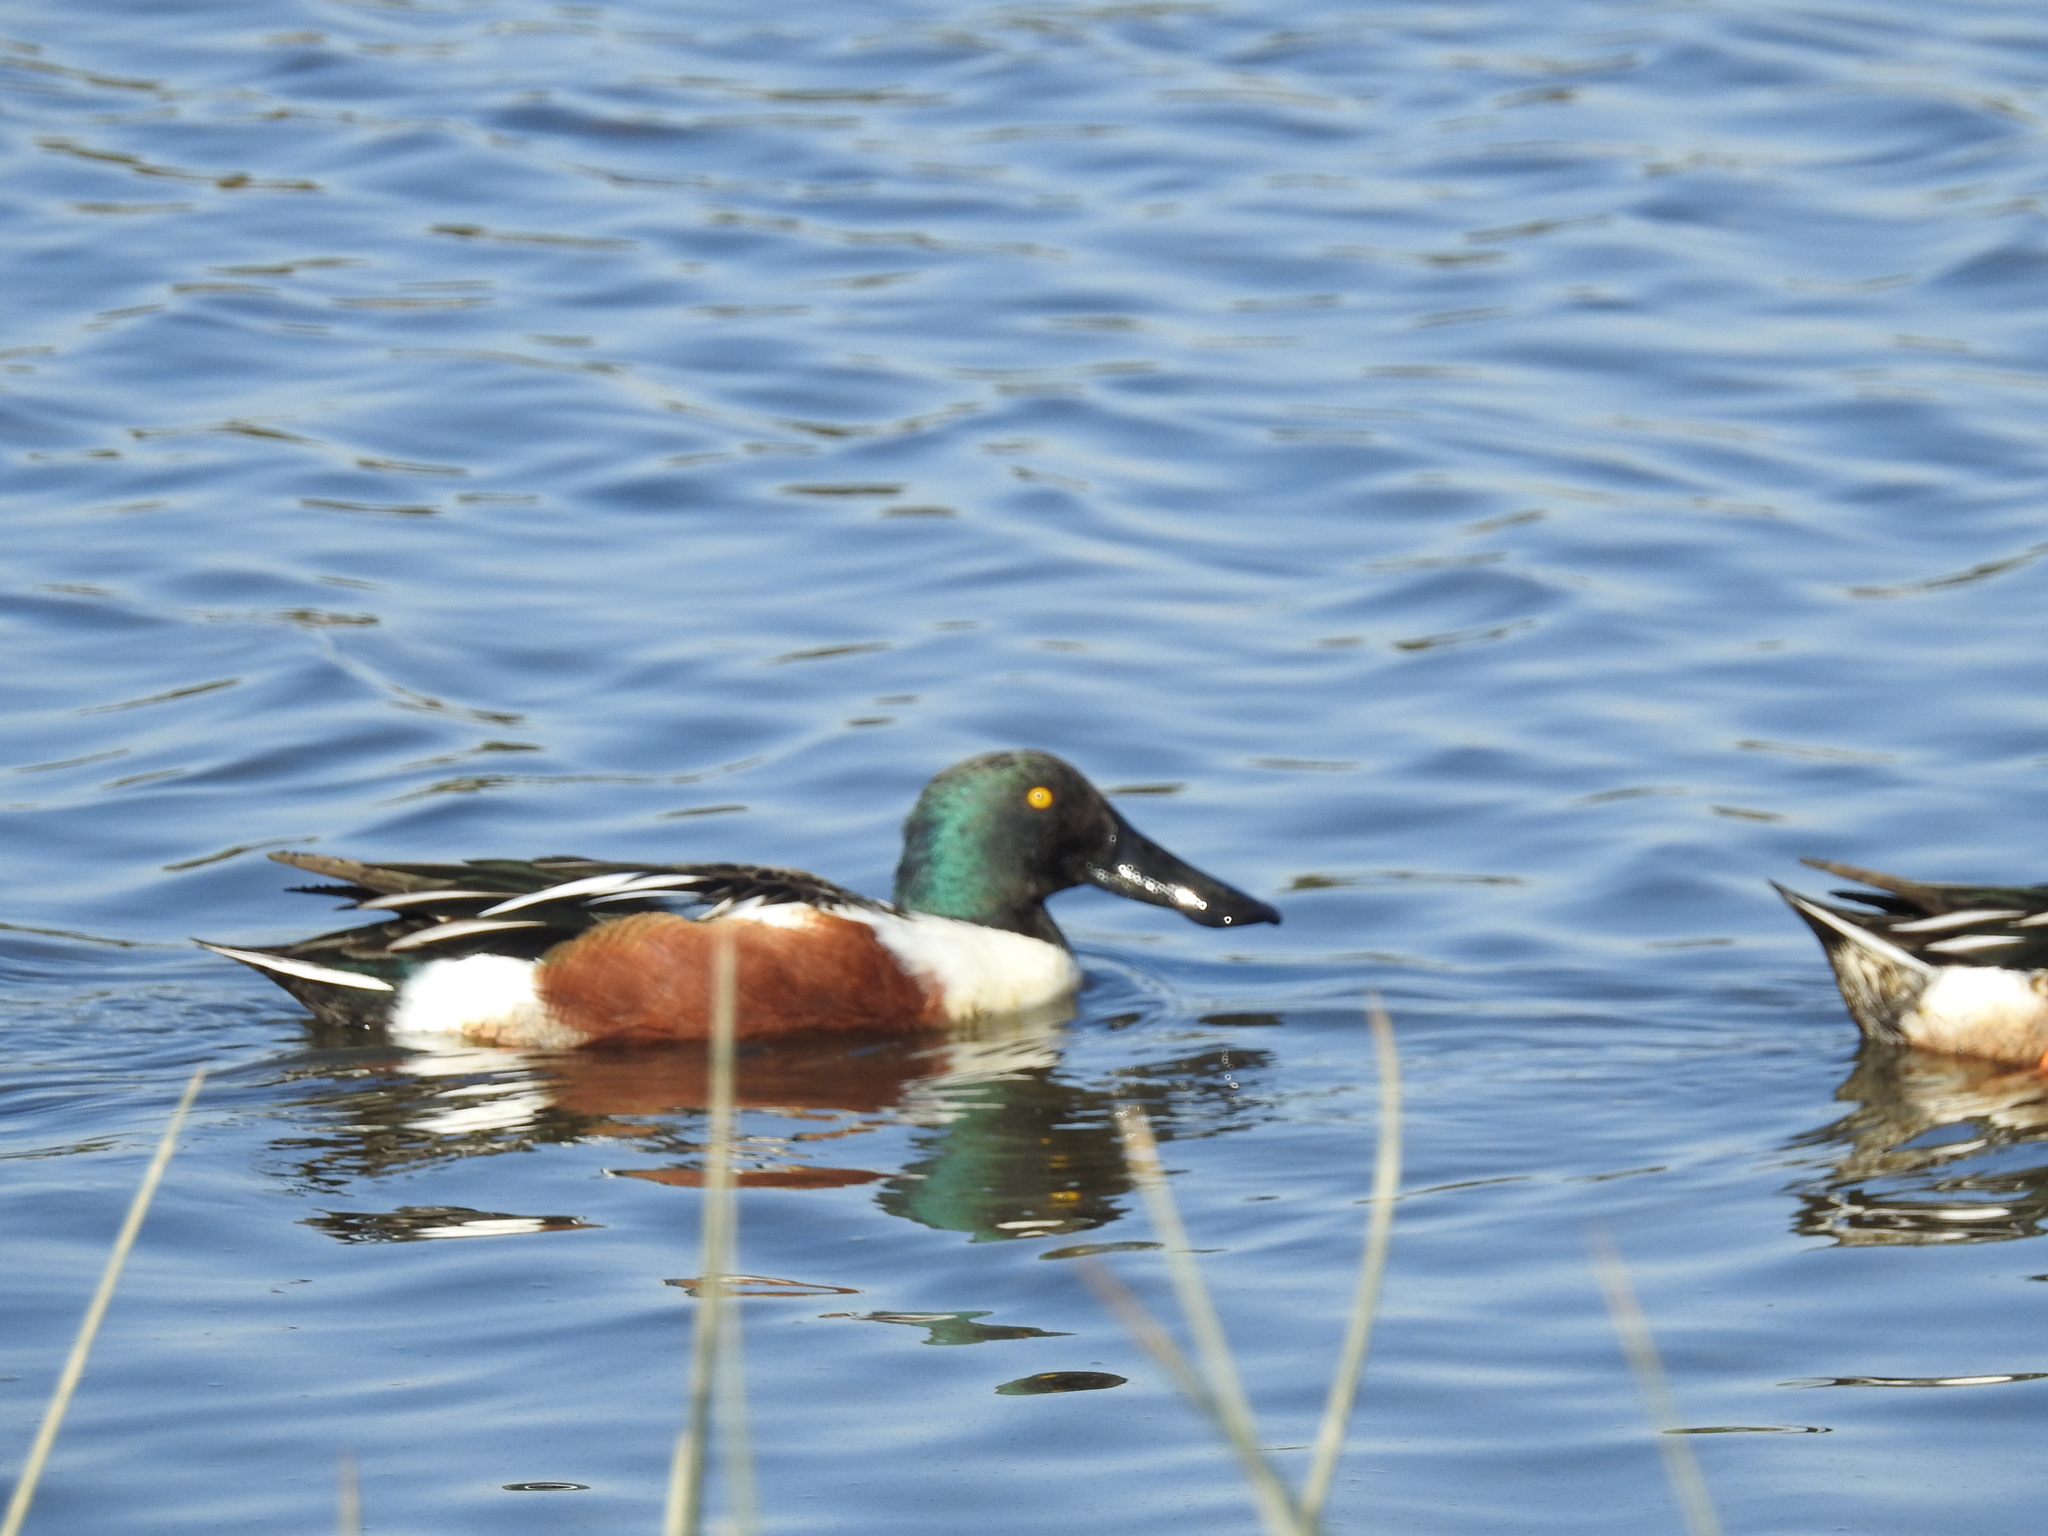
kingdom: Animalia
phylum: Chordata
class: Aves
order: Anseriformes
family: Anatidae
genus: Spatula
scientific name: Spatula clypeata
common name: Northern shoveler
